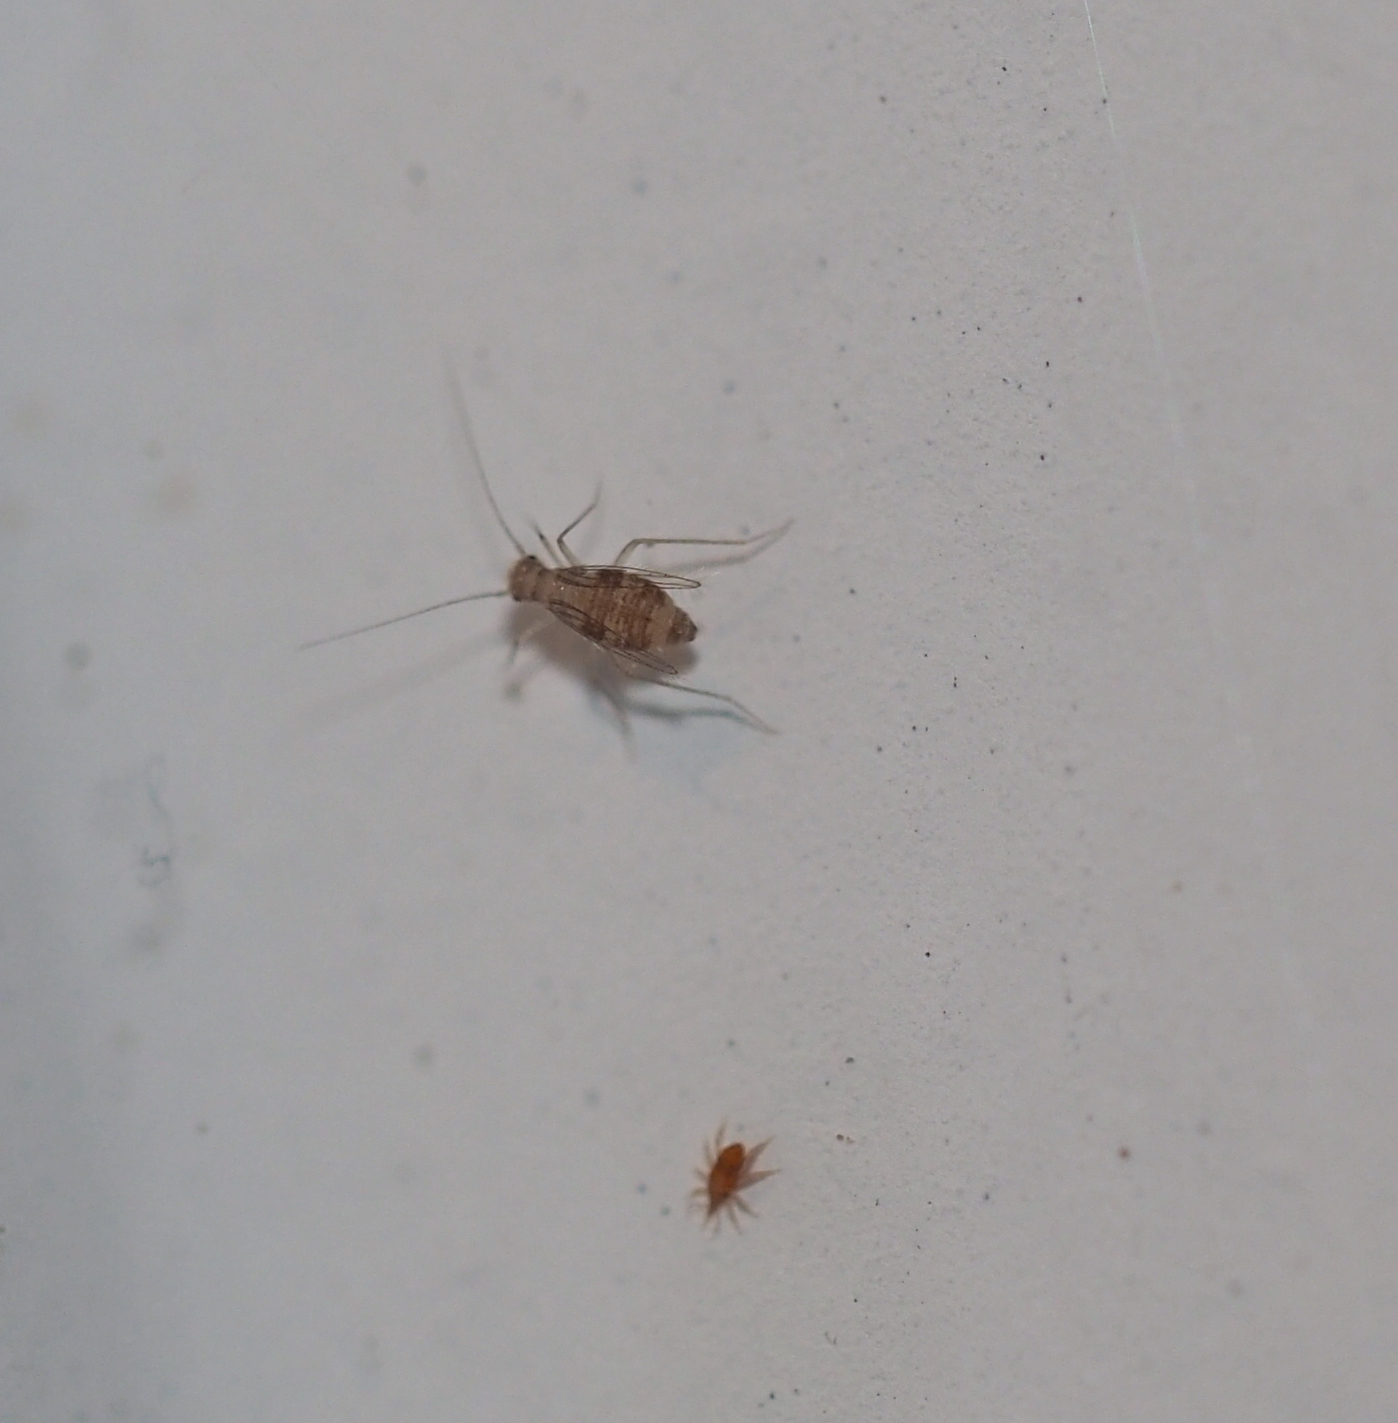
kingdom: Animalia
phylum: Arthropoda
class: Insecta
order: Psocodea
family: Psyllipsocidae
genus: Dorypteryx
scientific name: Dorypteryx domestica
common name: Cave barklouse
